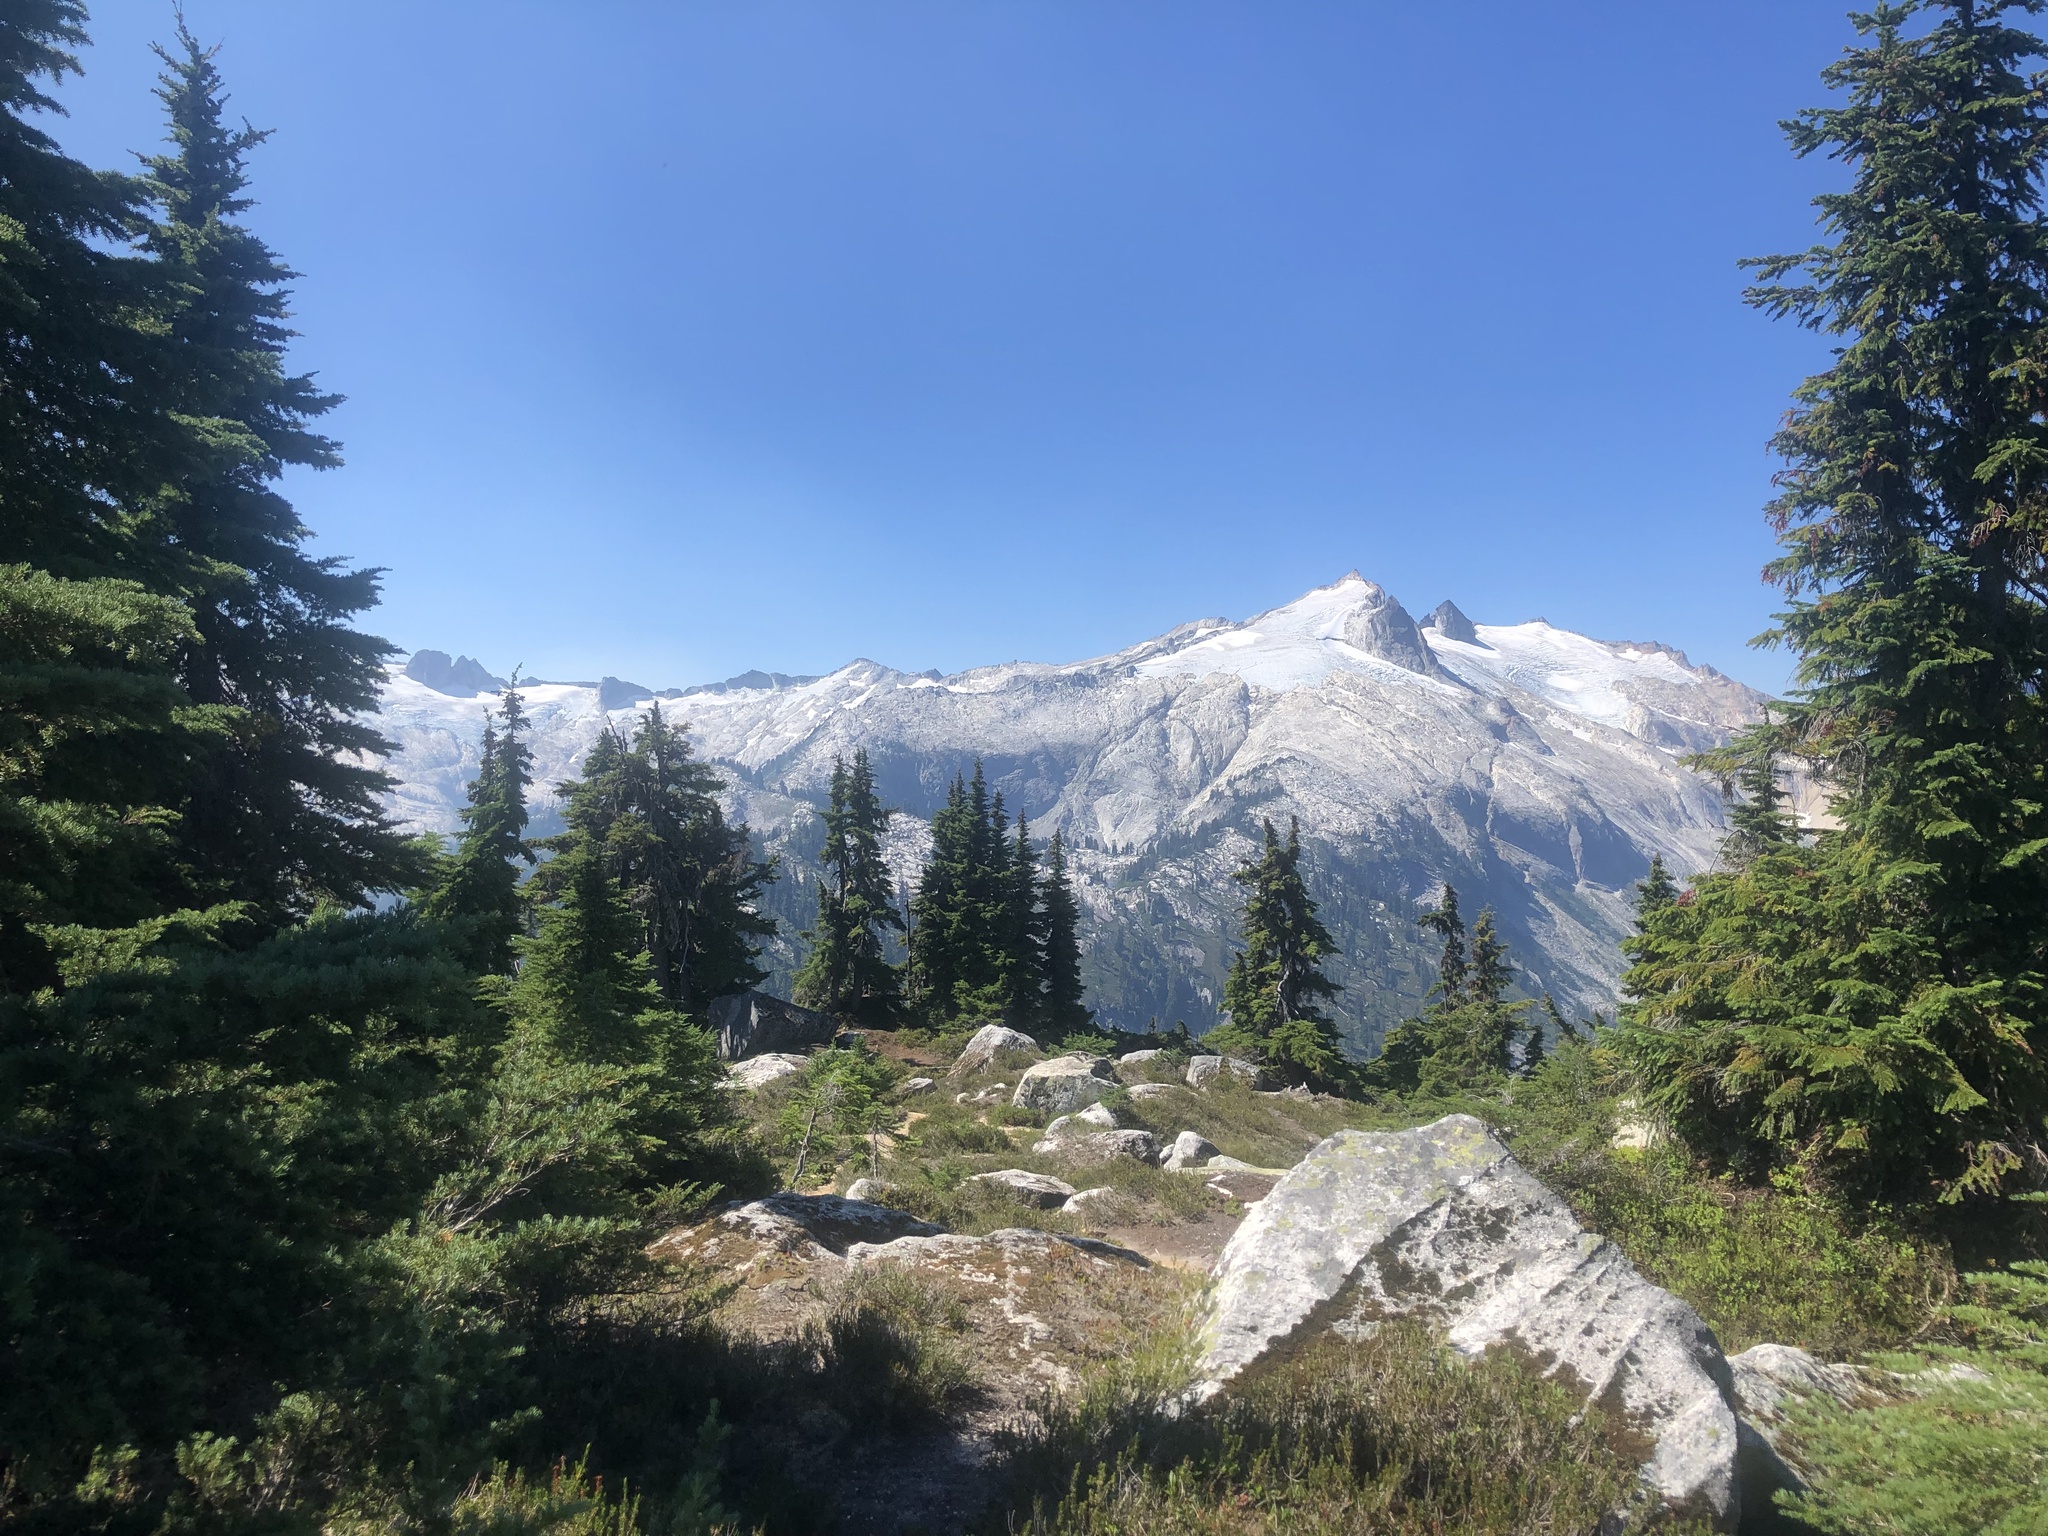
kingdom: Plantae
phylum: Tracheophyta
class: Pinopsida
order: Pinales
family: Pinaceae
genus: Tsuga
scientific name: Tsuga mertensiana
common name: Mountain hemlock
